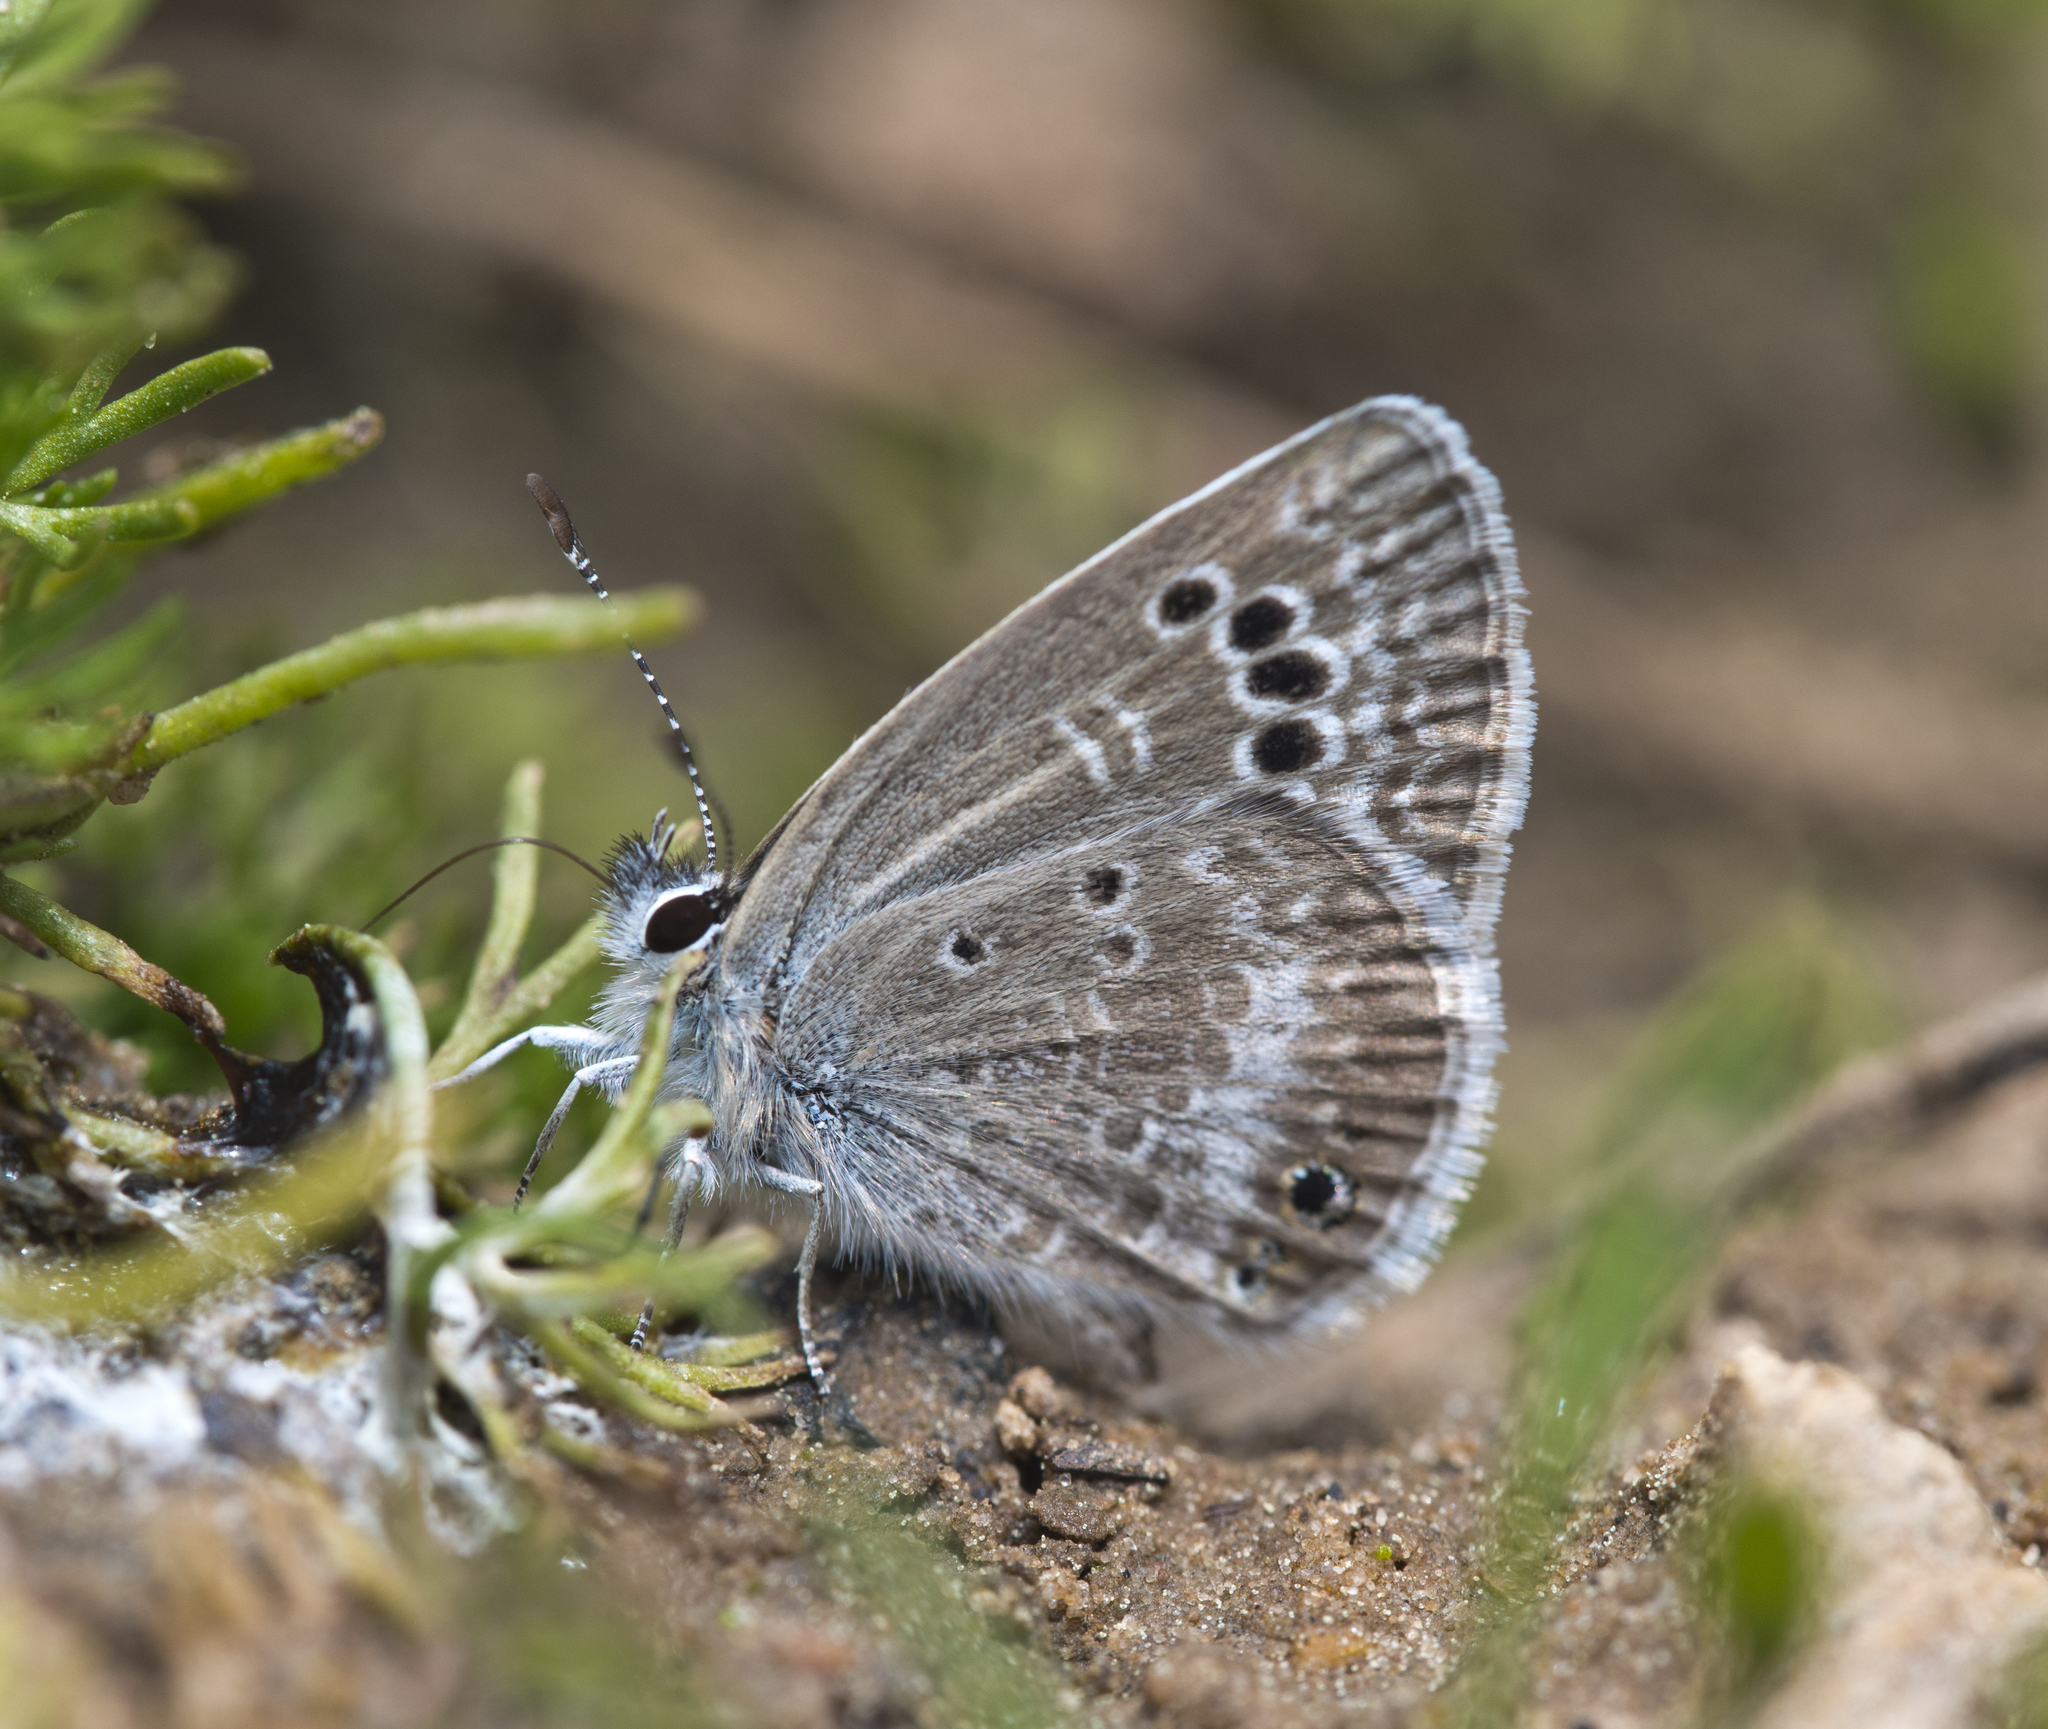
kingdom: Animalia
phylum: Arthropoda
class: Insecta
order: Lepidoptera
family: Lycaenidae
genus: Echinargus
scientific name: Echinargus isola
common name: Reakirt's blue
